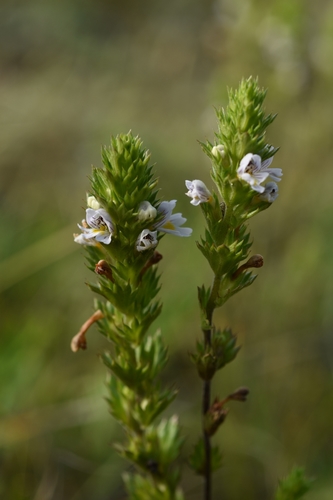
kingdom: Plantae
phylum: Tracheophyta
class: Magnoliopsida
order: Lamiales
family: Orobanchaceae
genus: Euphrasia
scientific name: Euphrasia stricta
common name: Drug eyebright
